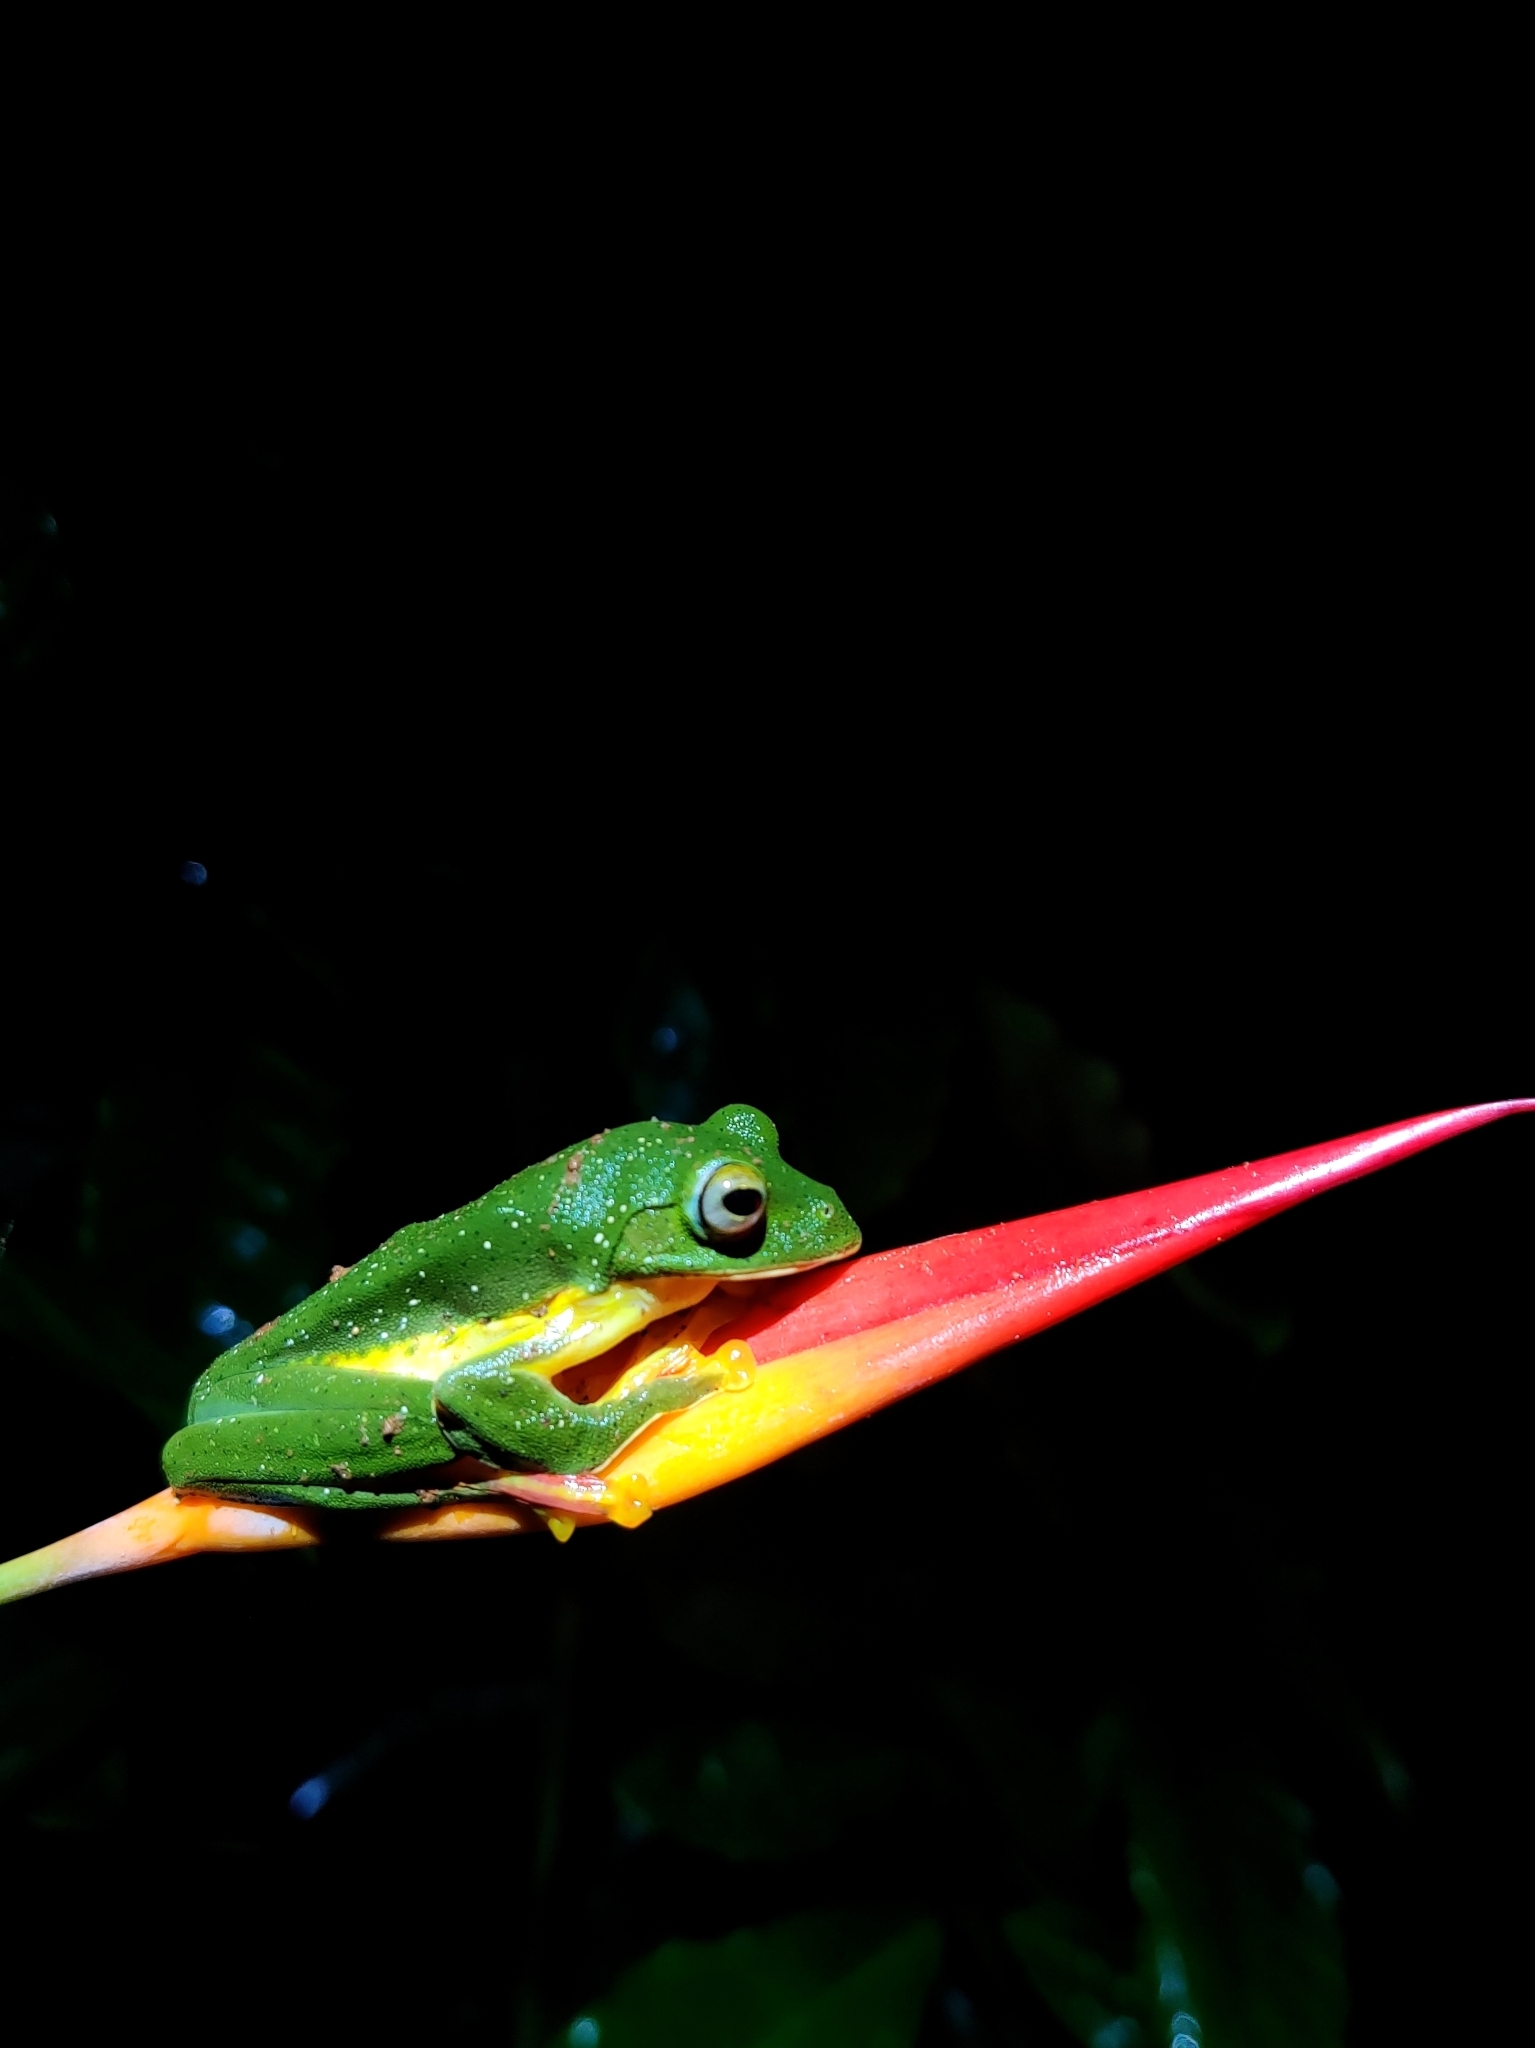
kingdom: Animalia
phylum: Chordata
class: Amphibia
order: Anura
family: Rhacophoridae
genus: Rhacophorus
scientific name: Rhacophorus malabaricus
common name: Malabar gliding frog
